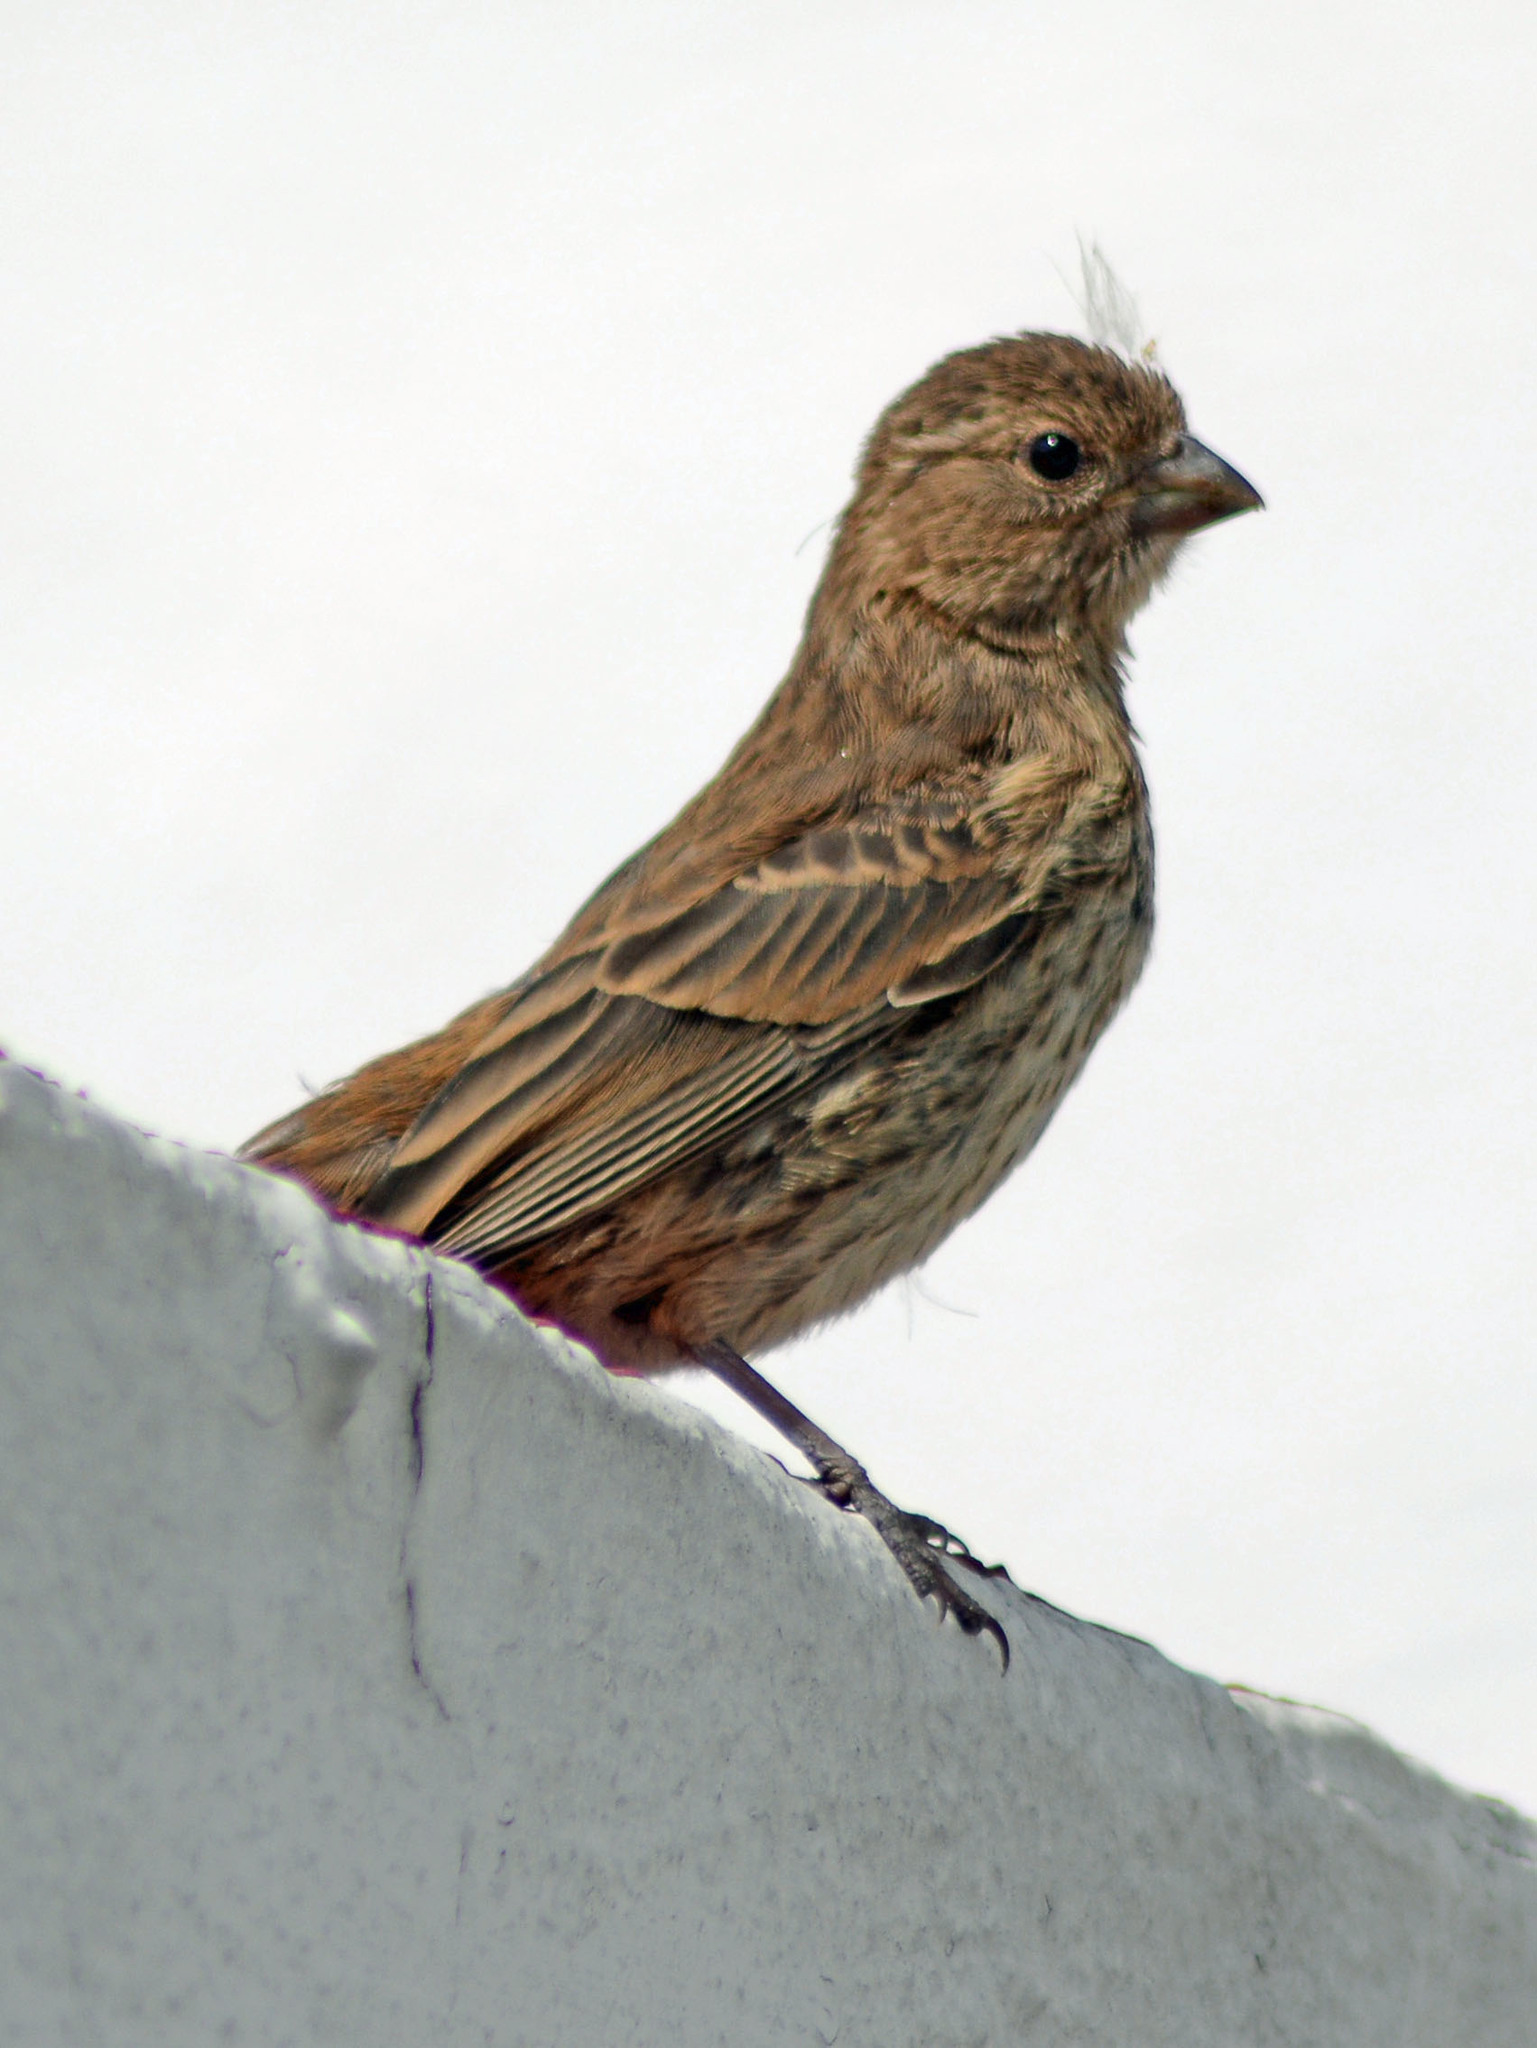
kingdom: Animalia
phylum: Chordata
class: Aves
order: Passeriformes
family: Fringillidae
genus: Haemorhous
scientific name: Haemorhous mexicanus
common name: House finch
